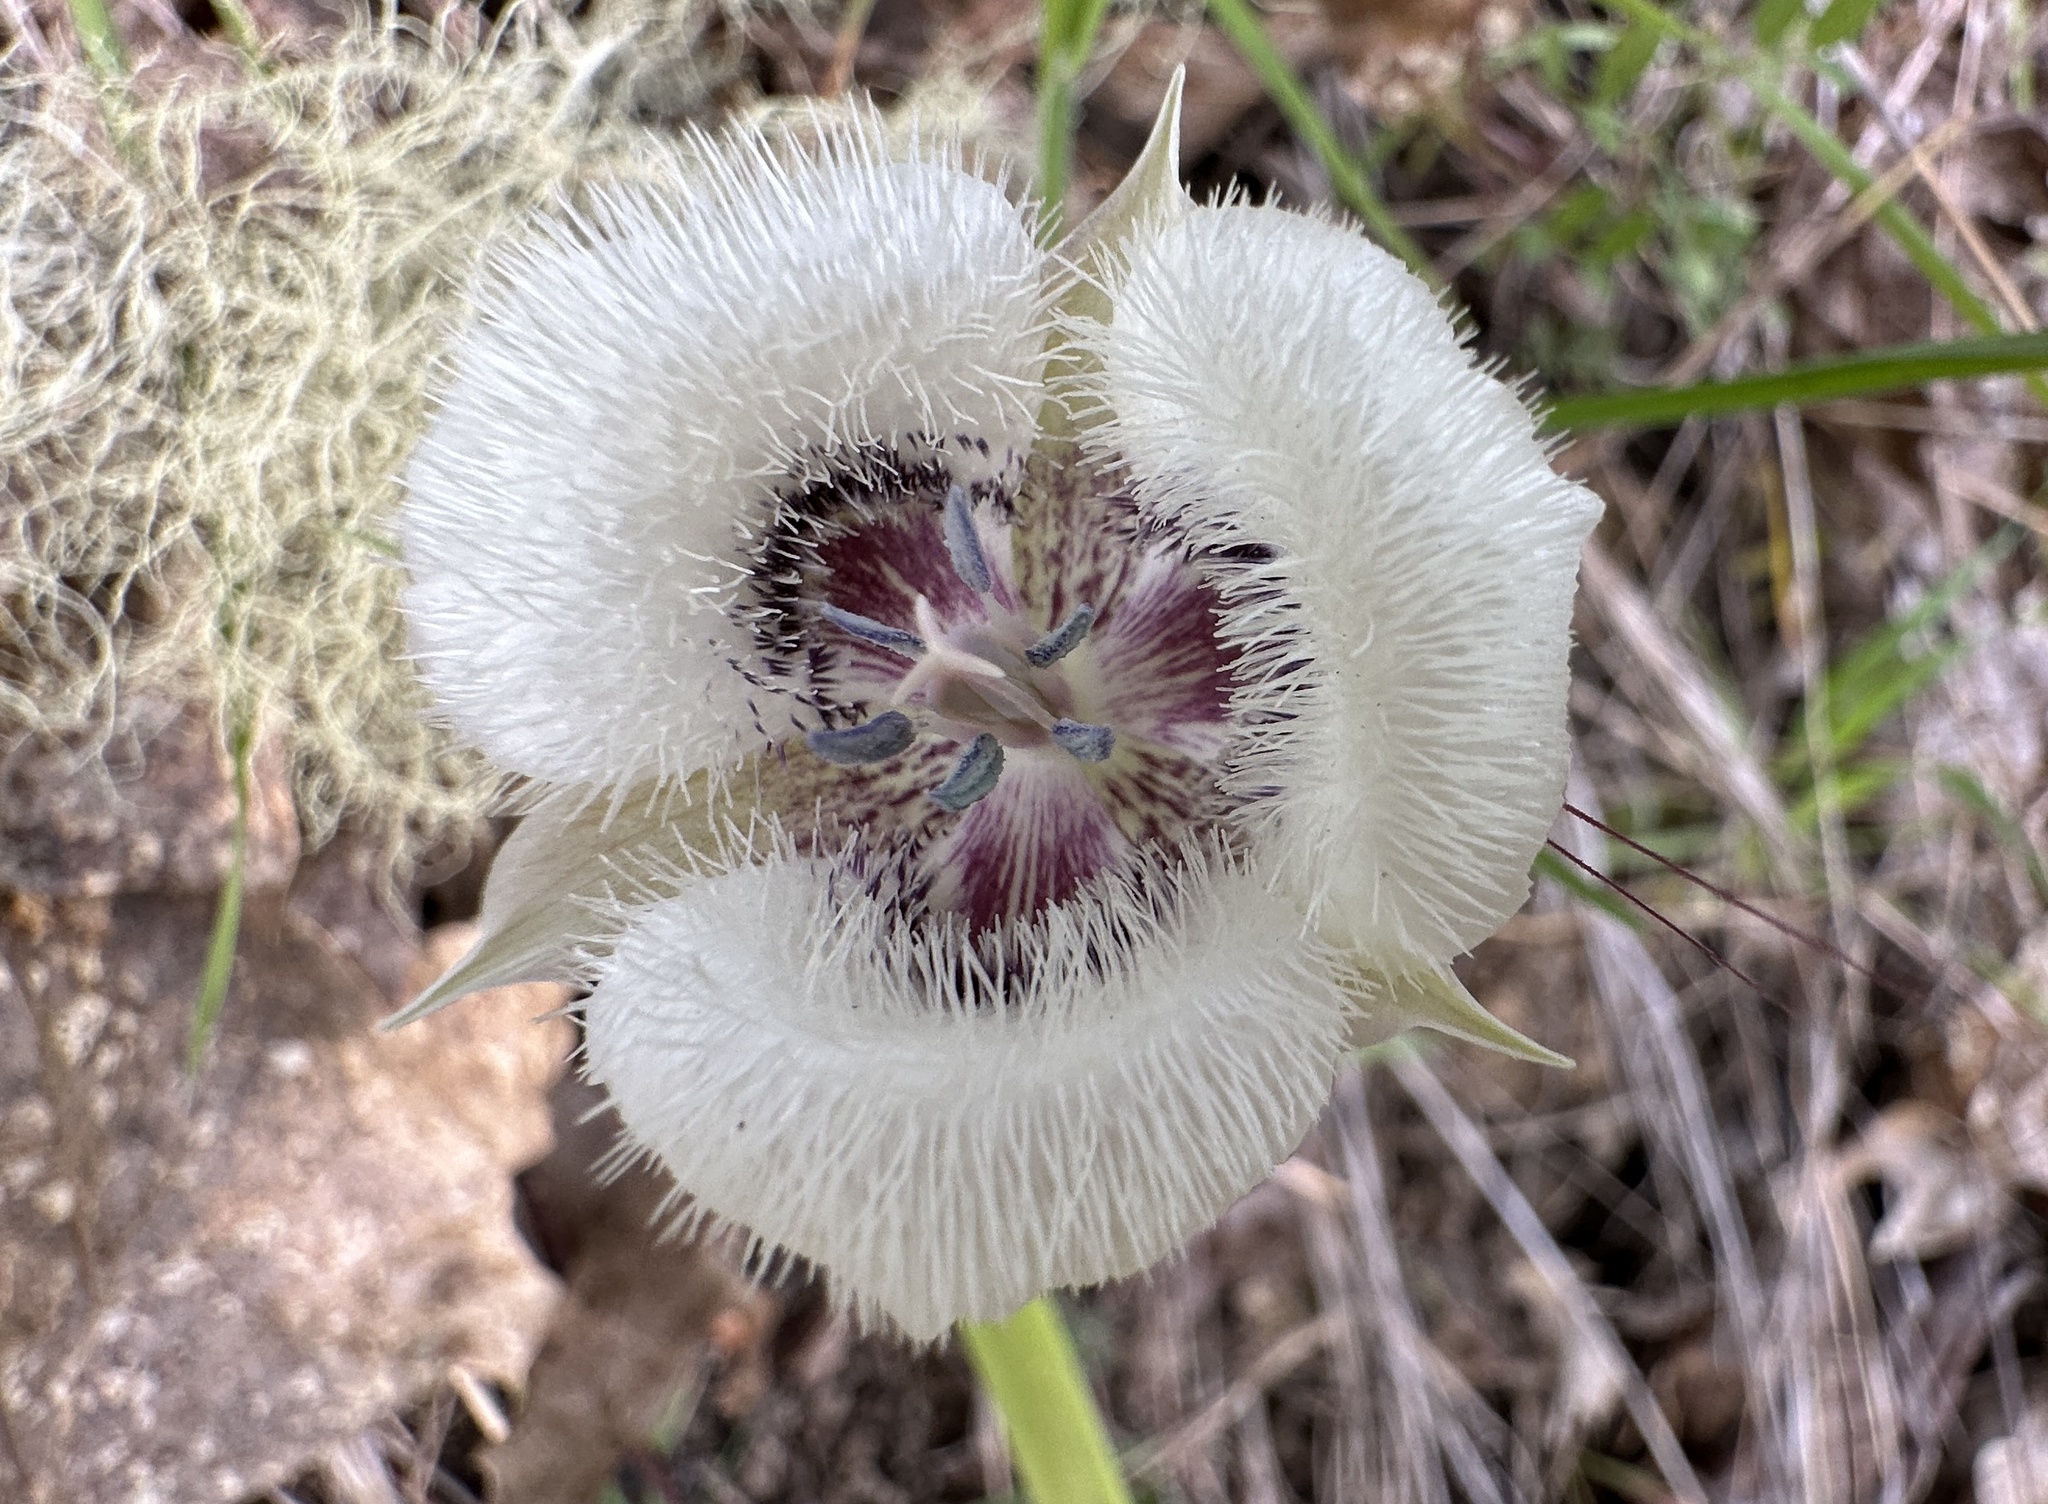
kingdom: Plantae
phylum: Tracheophyta
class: Liliopsida
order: Liliales
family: Liliaceae
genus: Calochortus
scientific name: Calochortus tolmiei
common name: Pussy-ears
